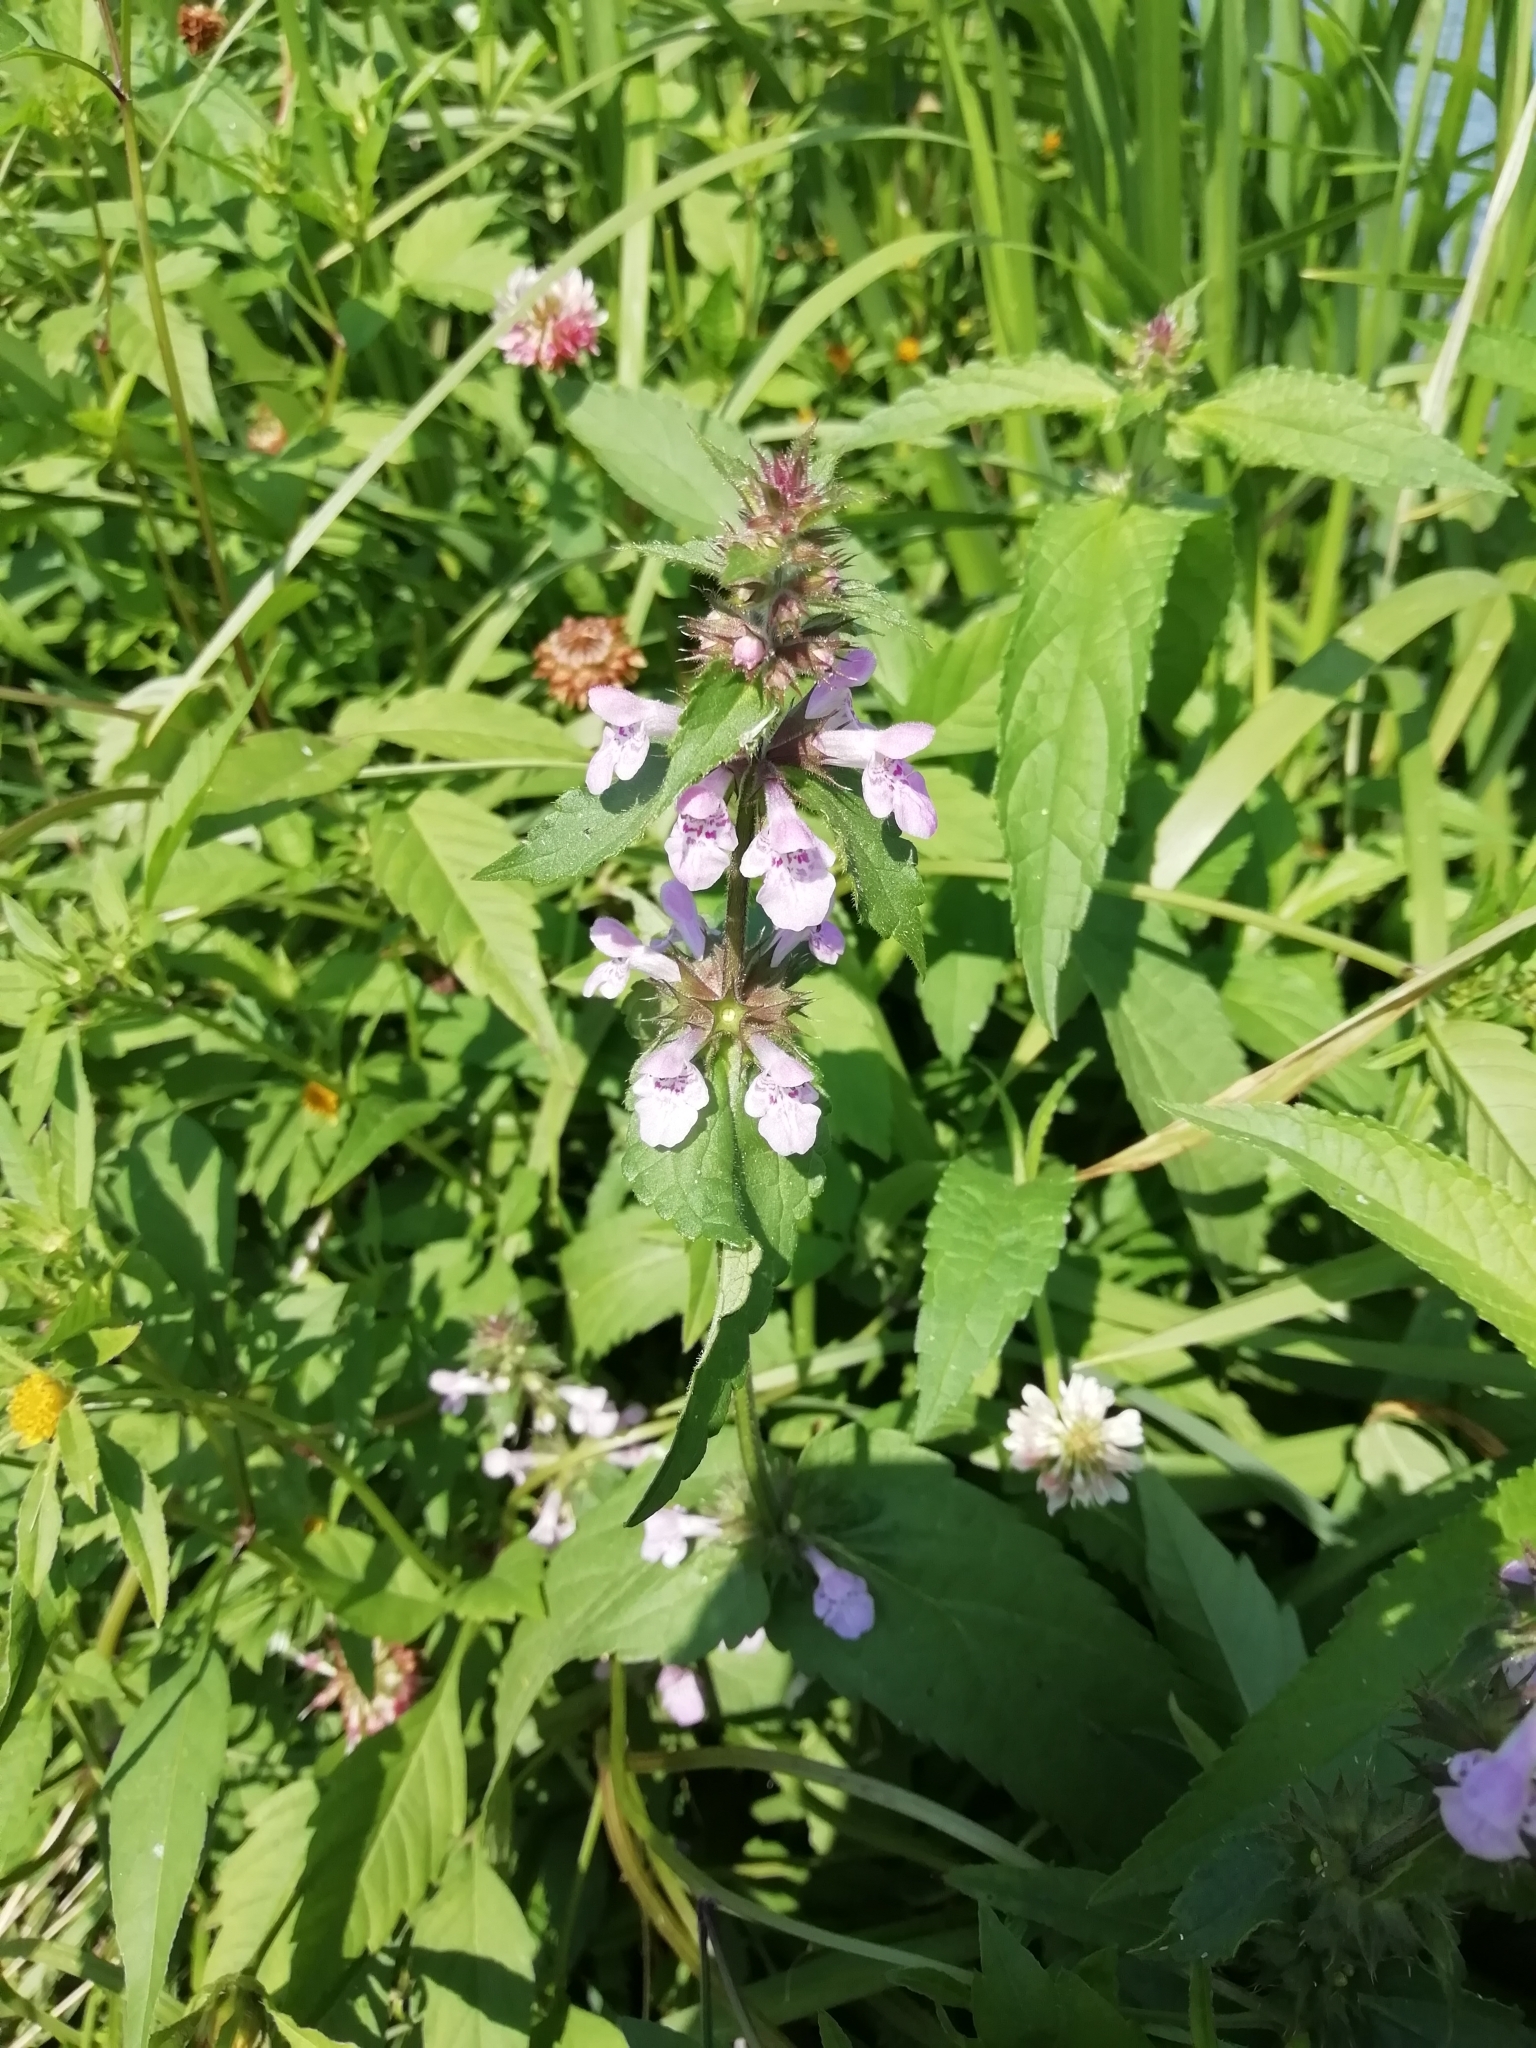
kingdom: Plantae
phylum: Tracheophyta
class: Magnoliopsida
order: Lamiales
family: Lamiaceae
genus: Stachys
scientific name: Stachys palustris
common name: Marsh woundwort
